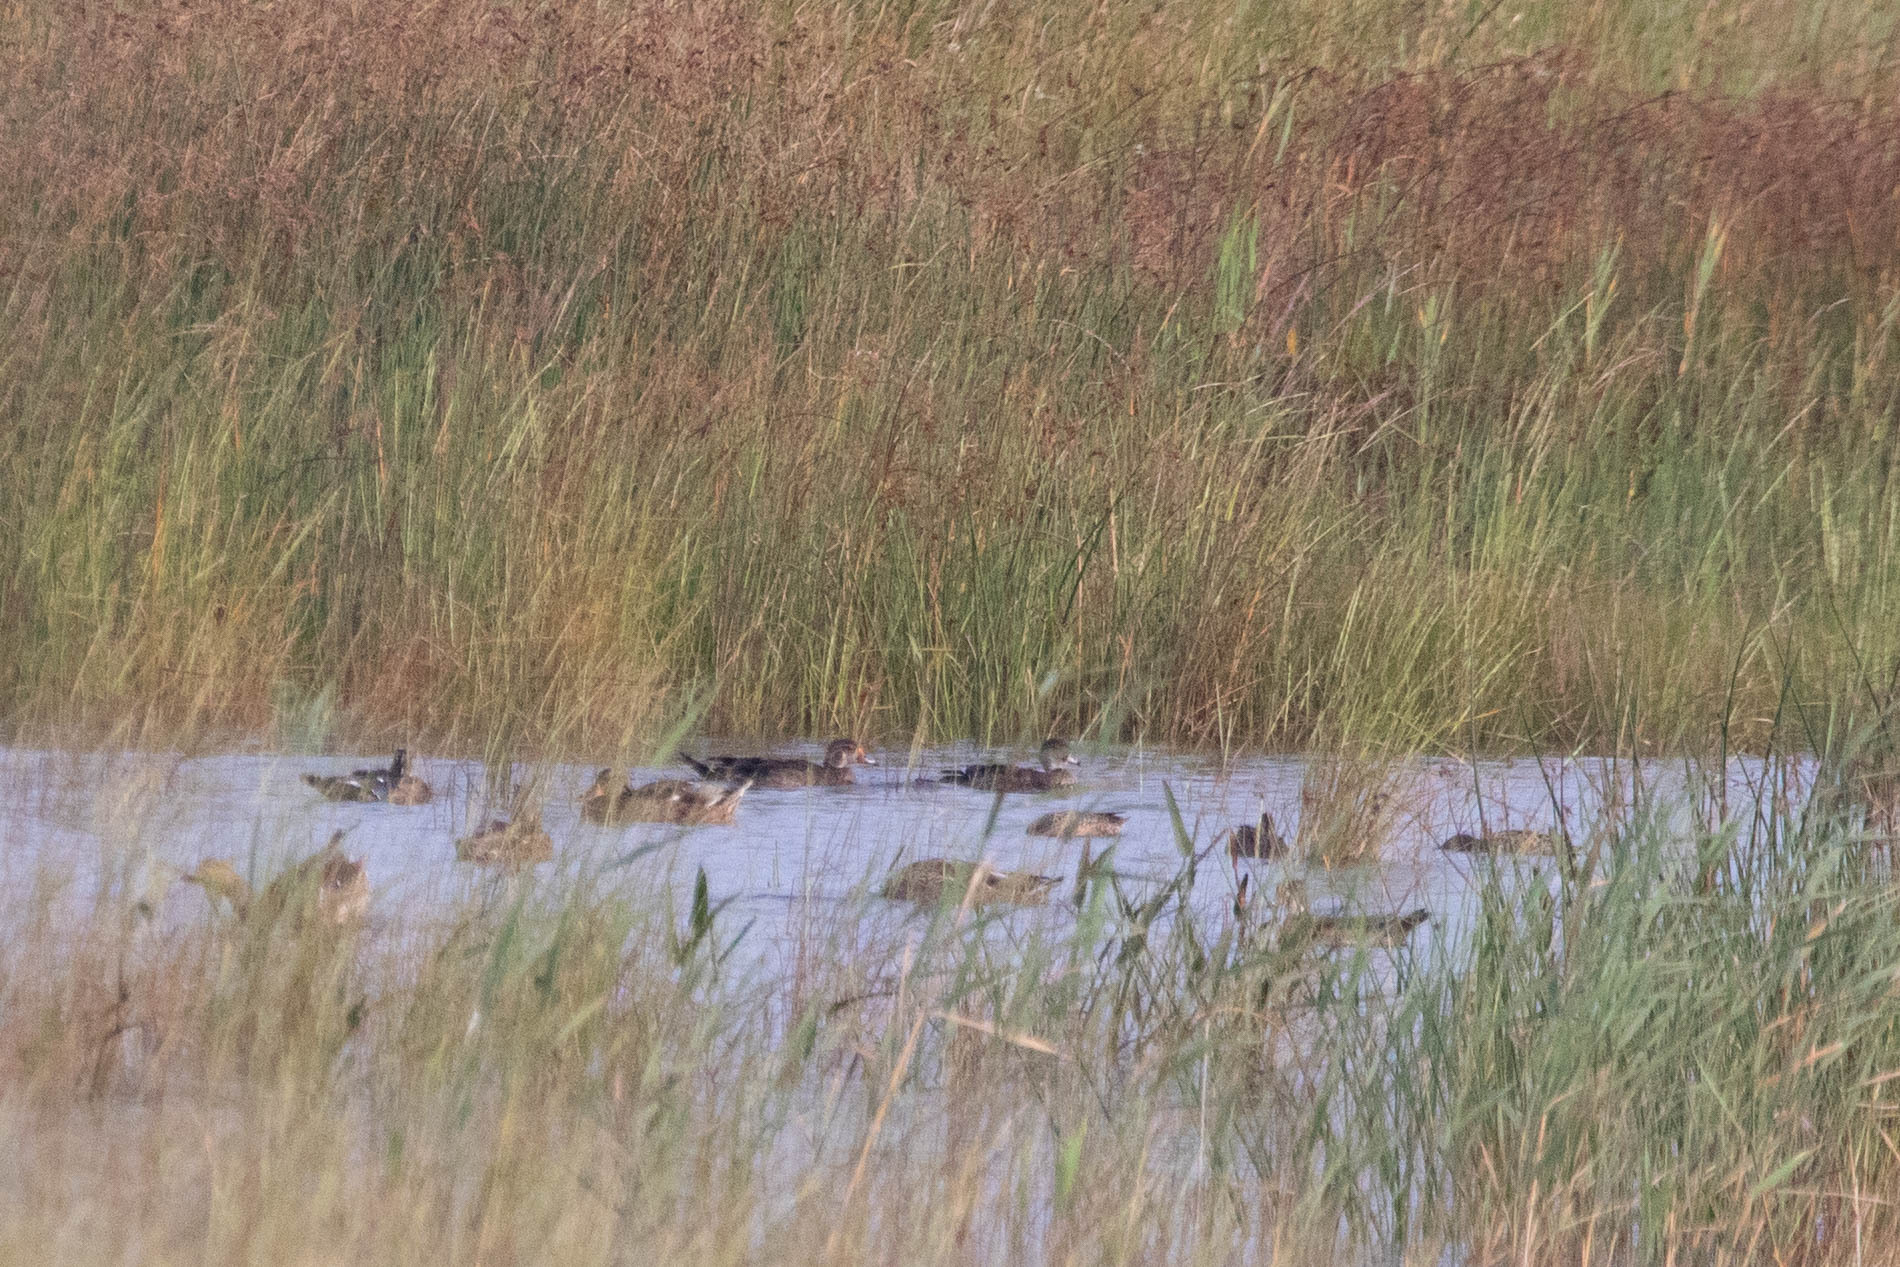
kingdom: Animalia
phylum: Chordata
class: Aves
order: Anseriformes
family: Anatidae
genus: Aix
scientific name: Aix sponsa
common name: Wood duck
